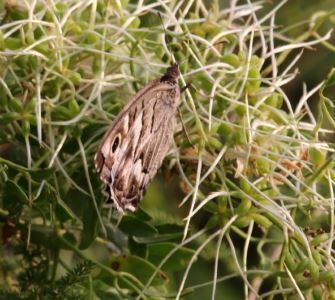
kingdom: Animalia
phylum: Arthropoda
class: Insecta
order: Lepidoptera
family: Nymphalidae
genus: Hipparchia
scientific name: Hipparchia fidia
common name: Striped grayling
